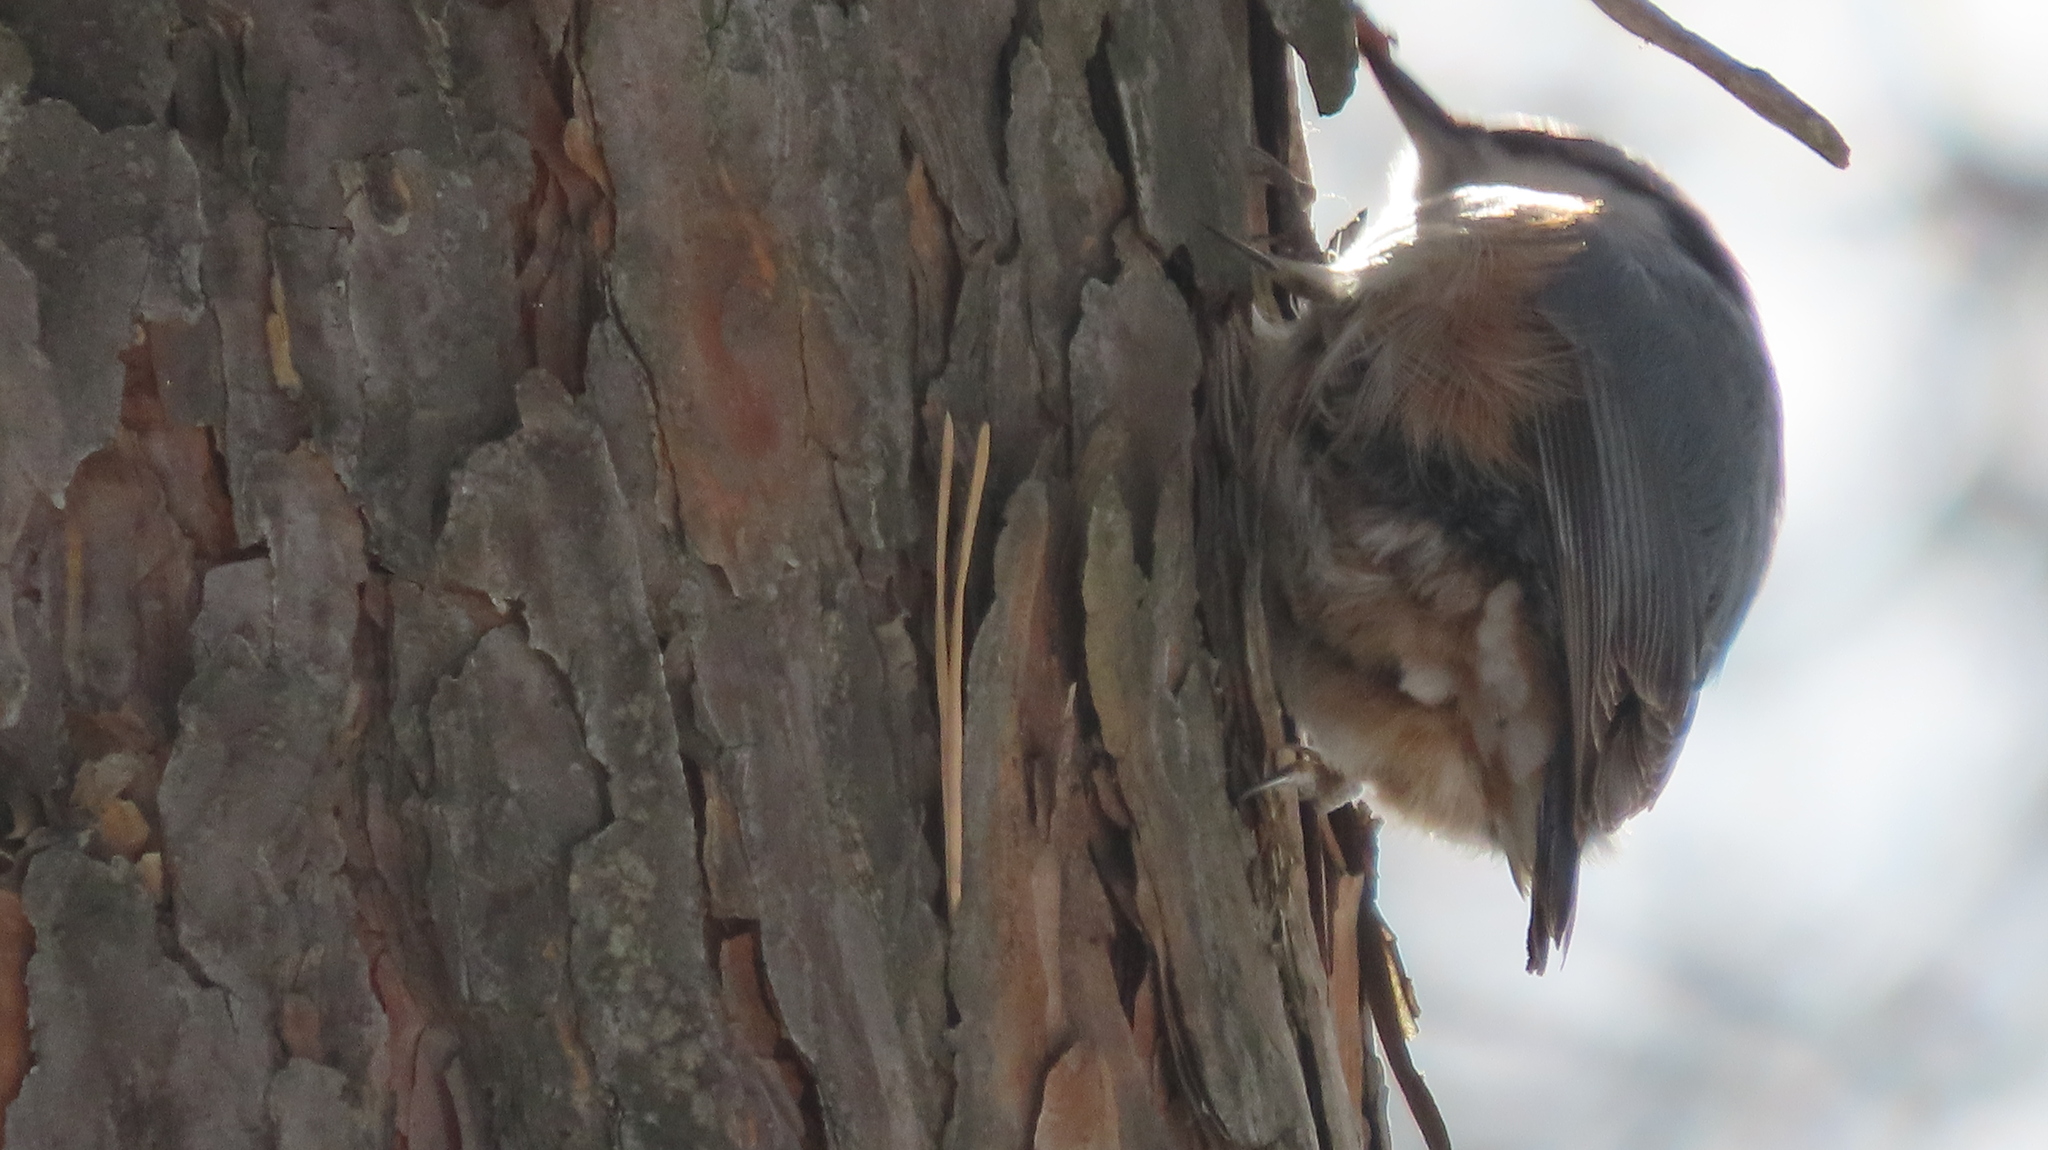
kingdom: Animalia
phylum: Chordata
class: Aves
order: Passeriformes
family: Sittidae
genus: Sitta
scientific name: Sitta europaea
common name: Eurasian nuthatch
